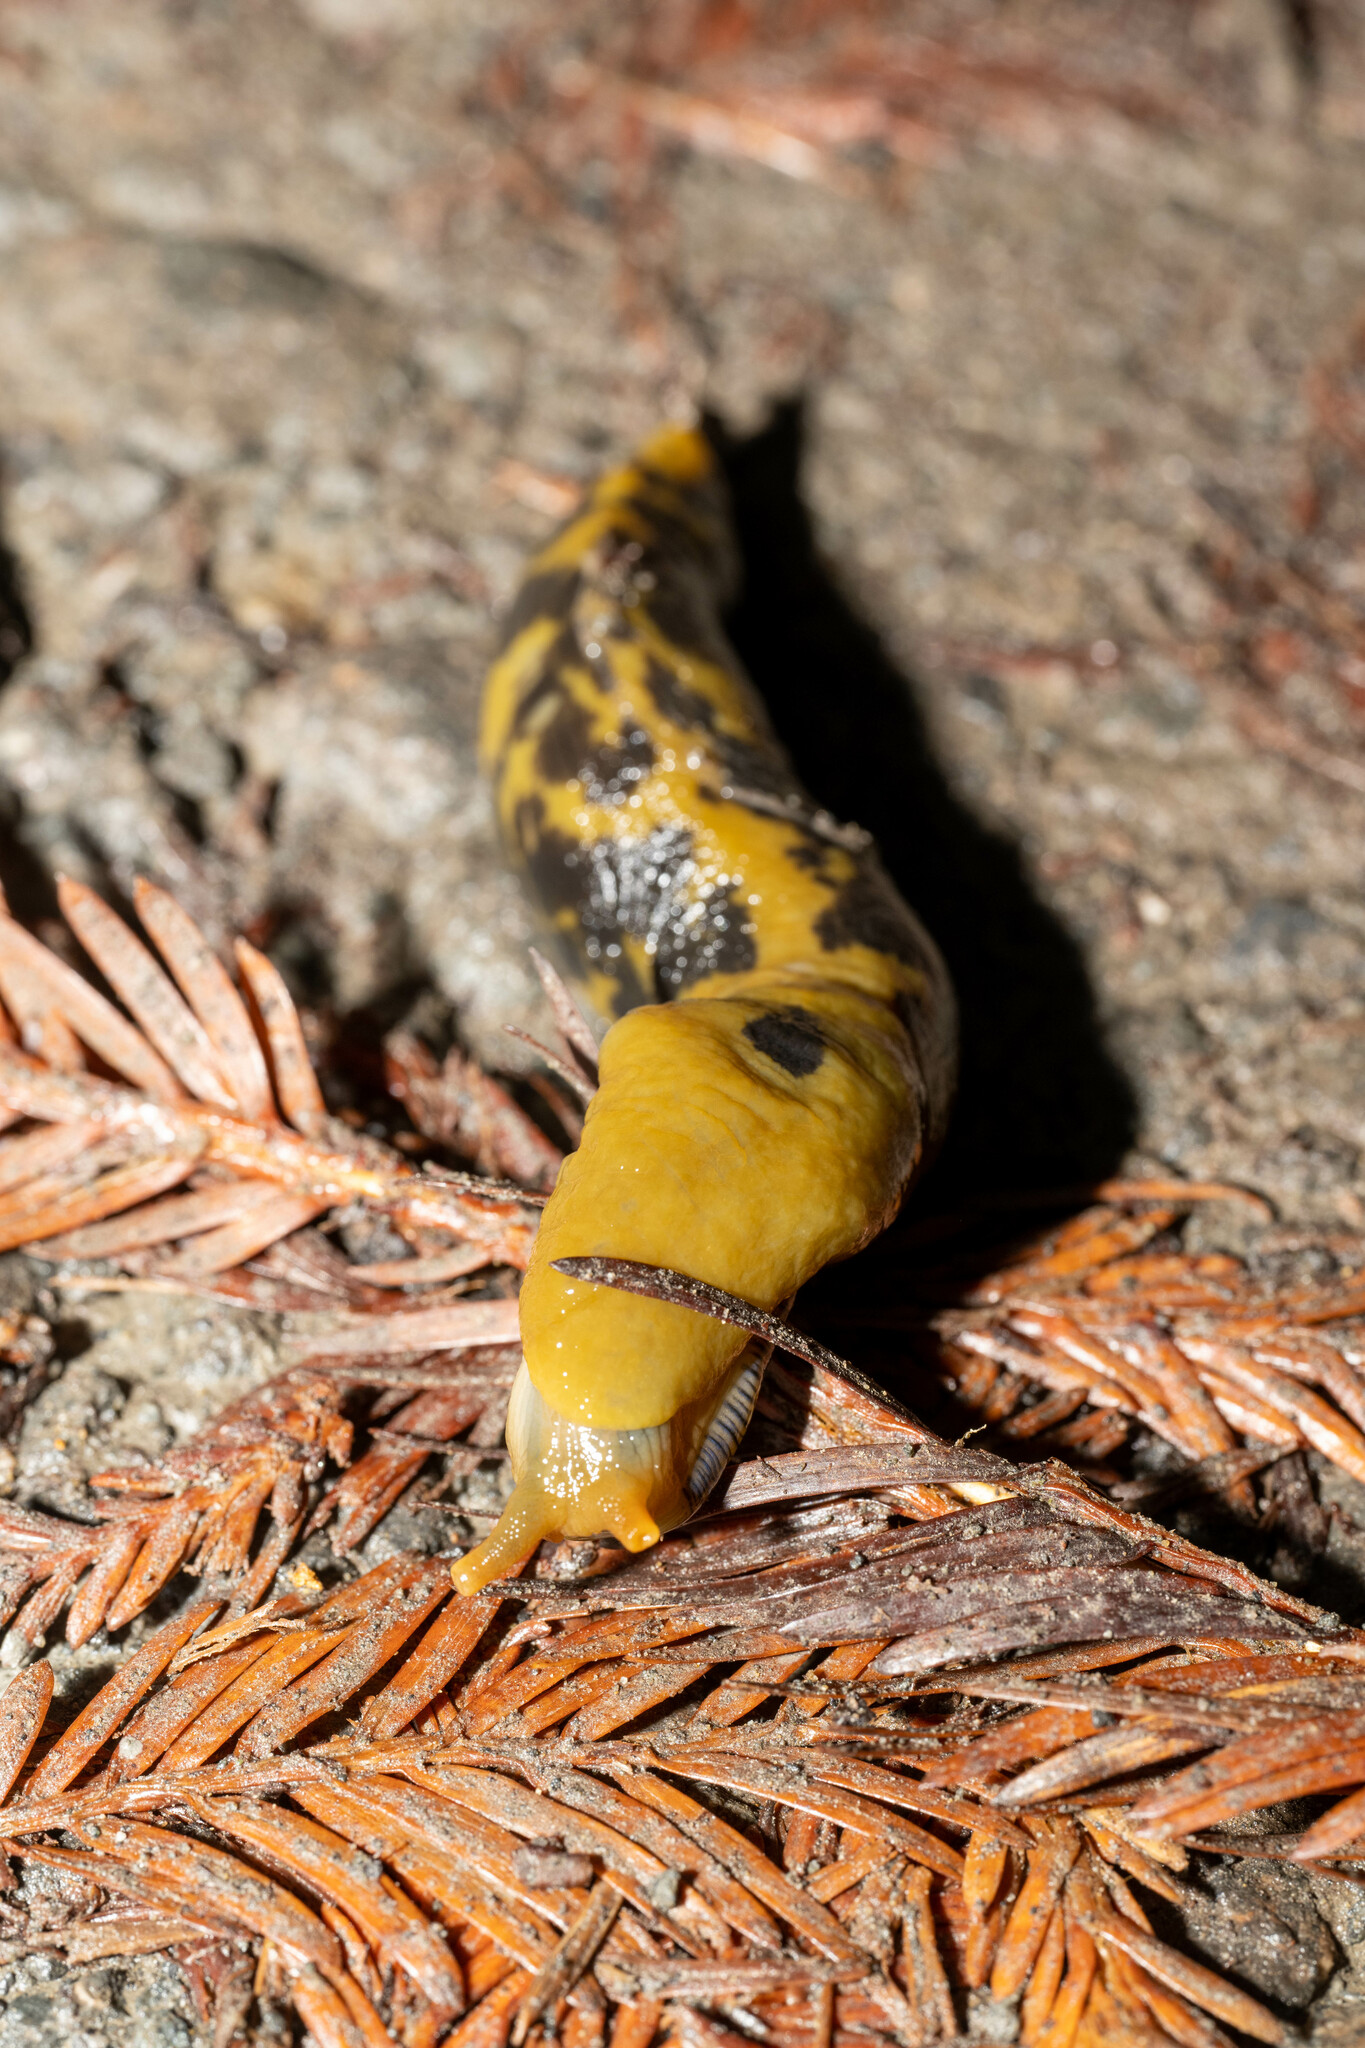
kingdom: Animalia
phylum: Mollusca
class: Gastropoda
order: Stylommatophora
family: Ariolimacidae
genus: Ariolimax
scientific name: Ariolimax buttoni
